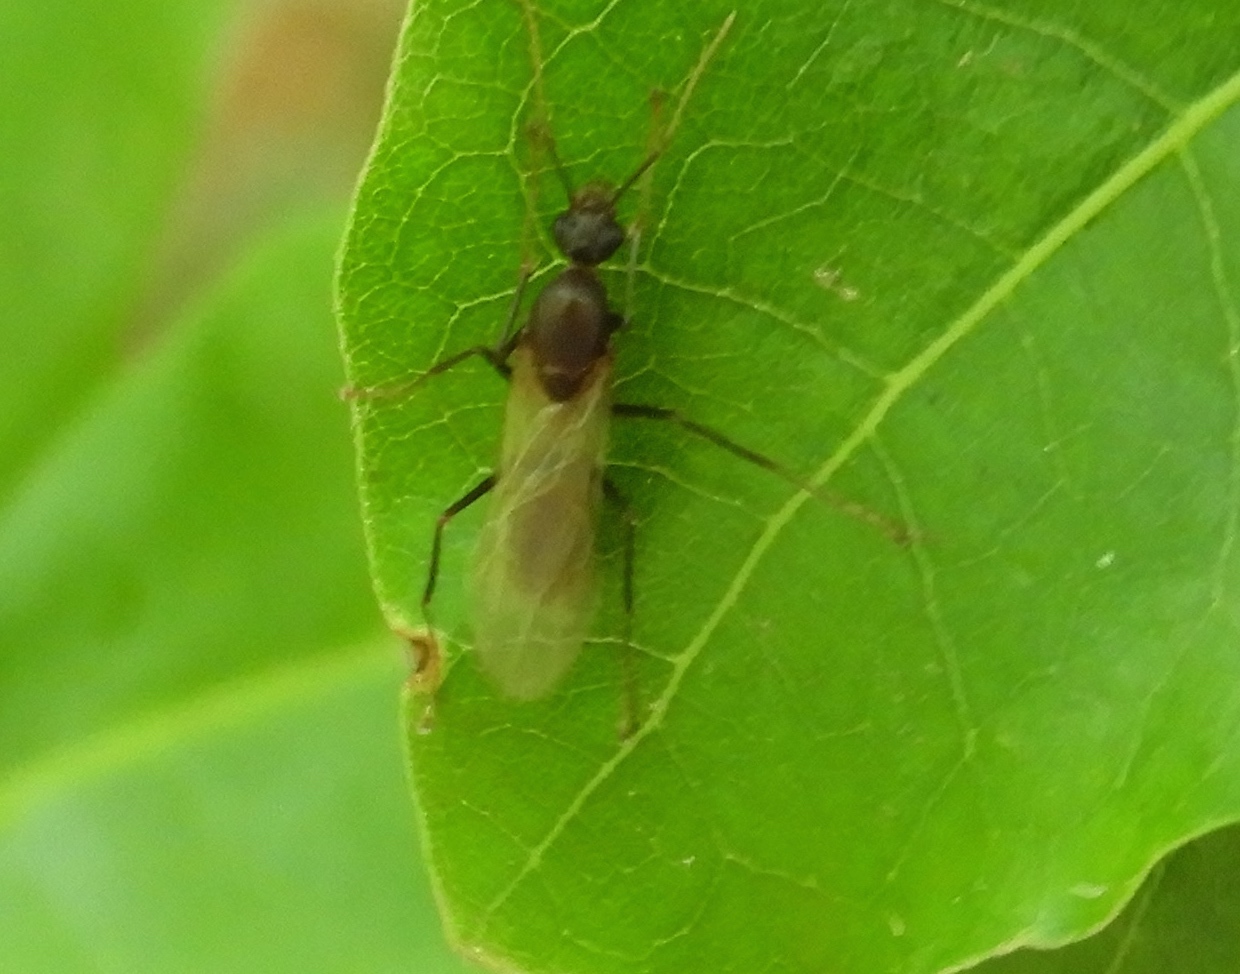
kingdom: Animalia
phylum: Arthropoda
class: Insecta
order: Hymenoptera
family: Formicidae
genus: Camponotus
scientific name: Camponotus
